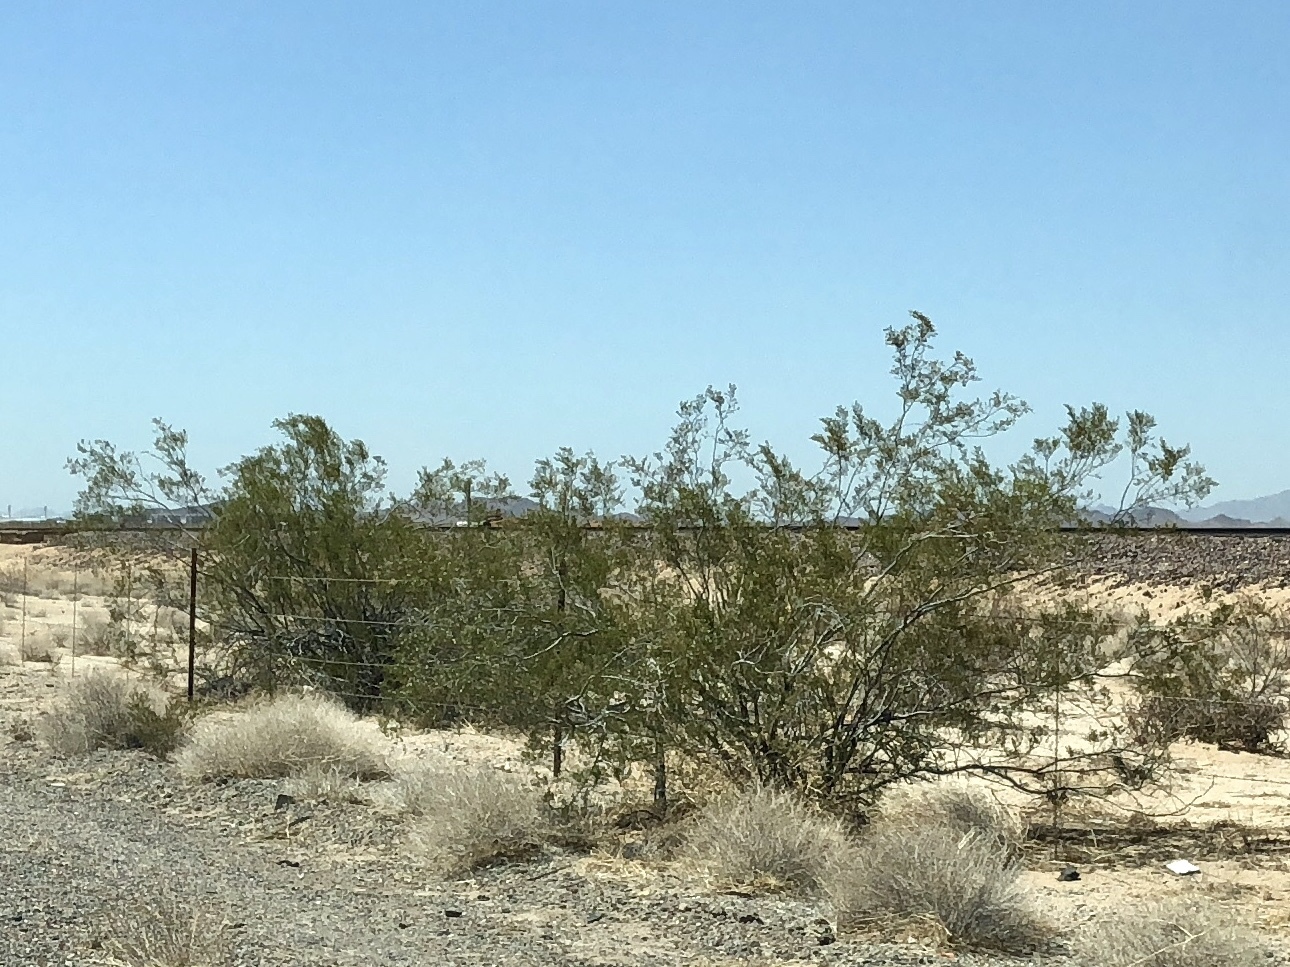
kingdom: Plantae
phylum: Tracheophyta
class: Magnoliopsida
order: Zygophyllales
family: Zygophyllaceae
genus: Larrea
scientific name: Larrea tridentata
